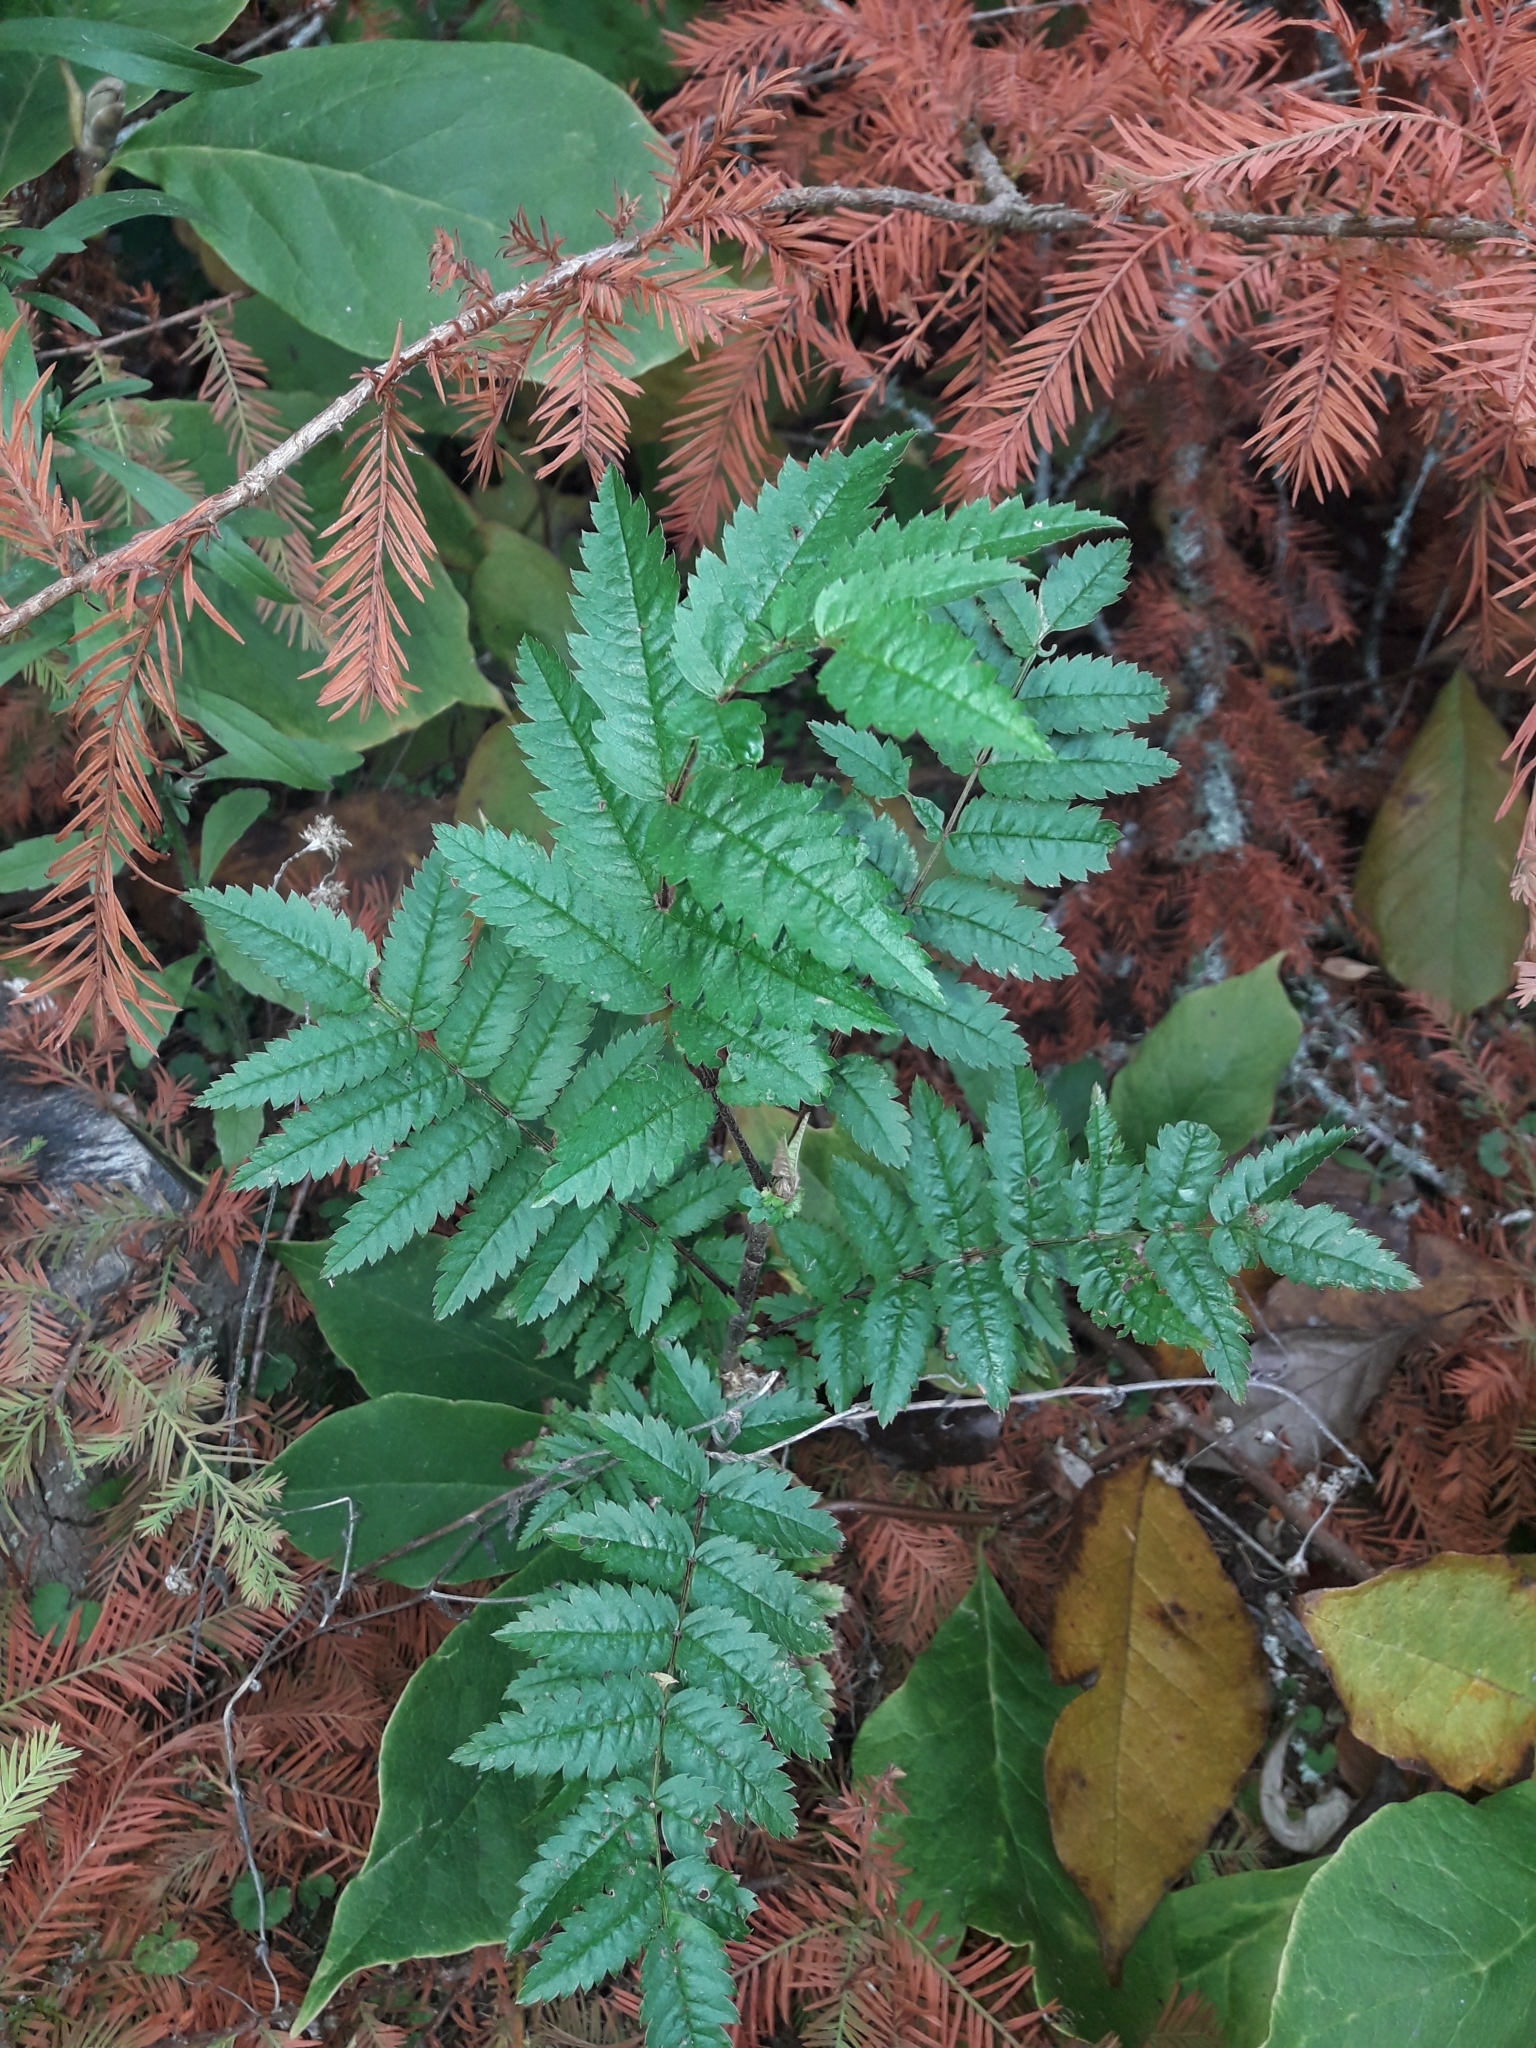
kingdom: Plantae
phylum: Tracheophyta
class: Magnoliopsida
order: Rosales
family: Rosaceae
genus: Sorbus
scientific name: Sorbus aucuparia
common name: Rowan
